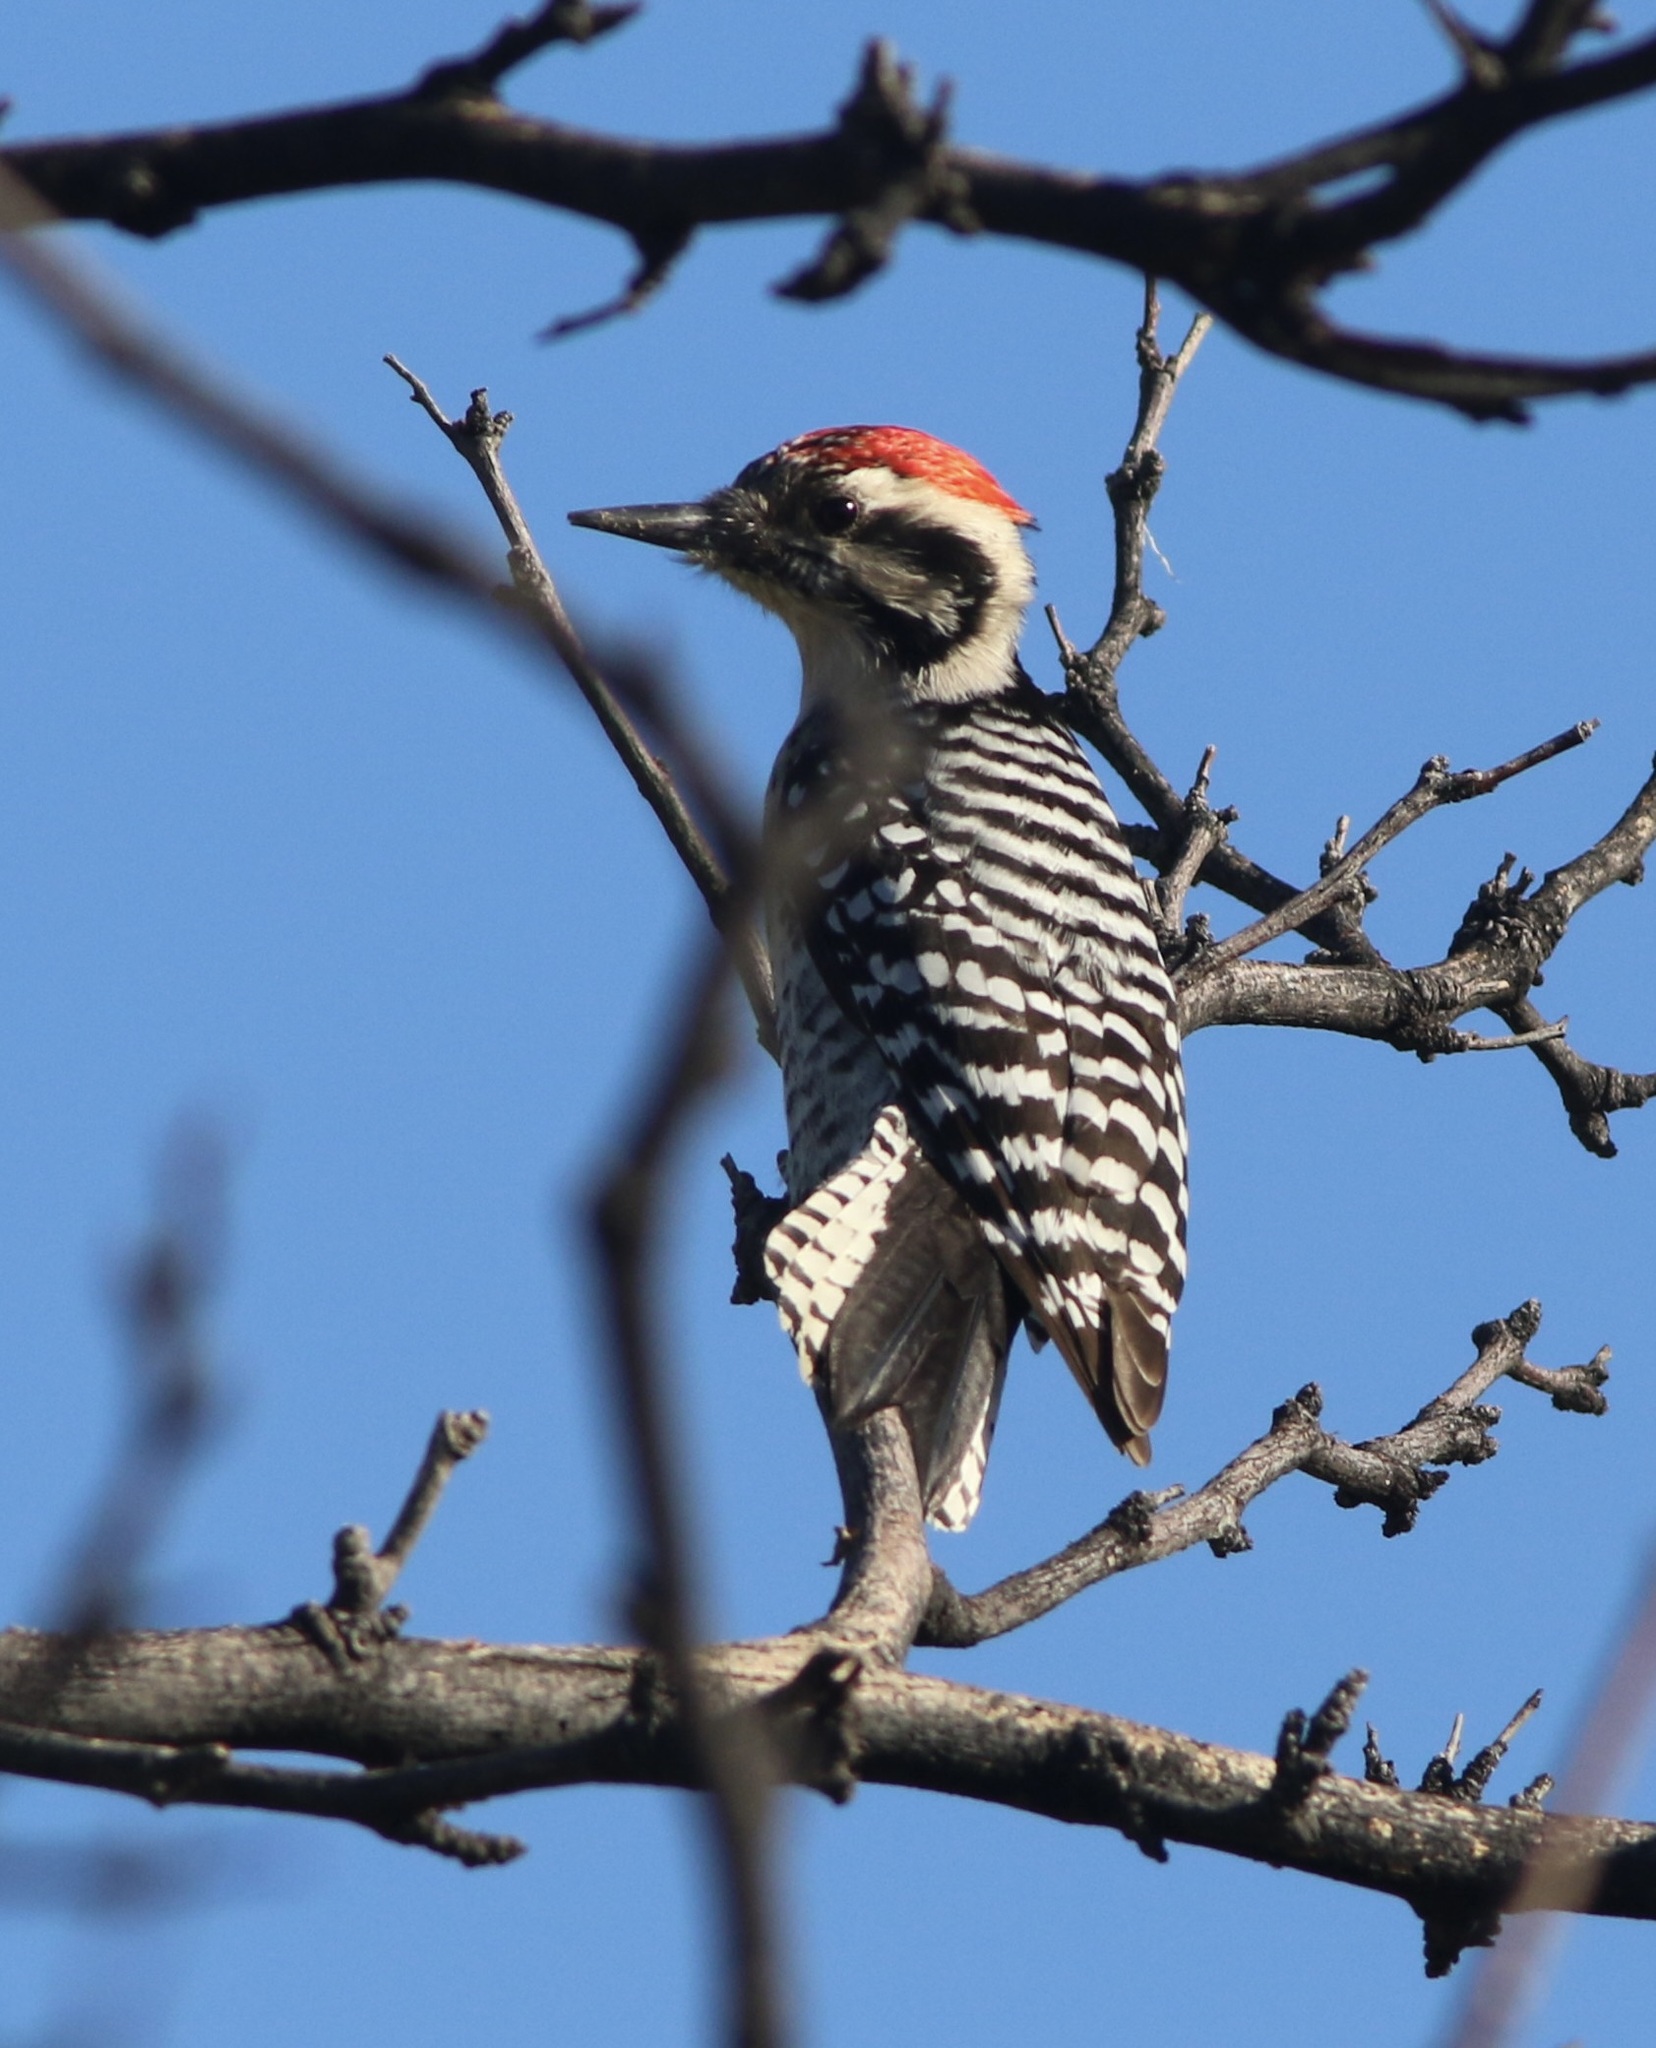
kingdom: Animalia
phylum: Chordata
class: Aves
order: Piciformes
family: Picidae
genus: Dryobates
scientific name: Dryobates scalaris
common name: Ladder-backed woodpecker
